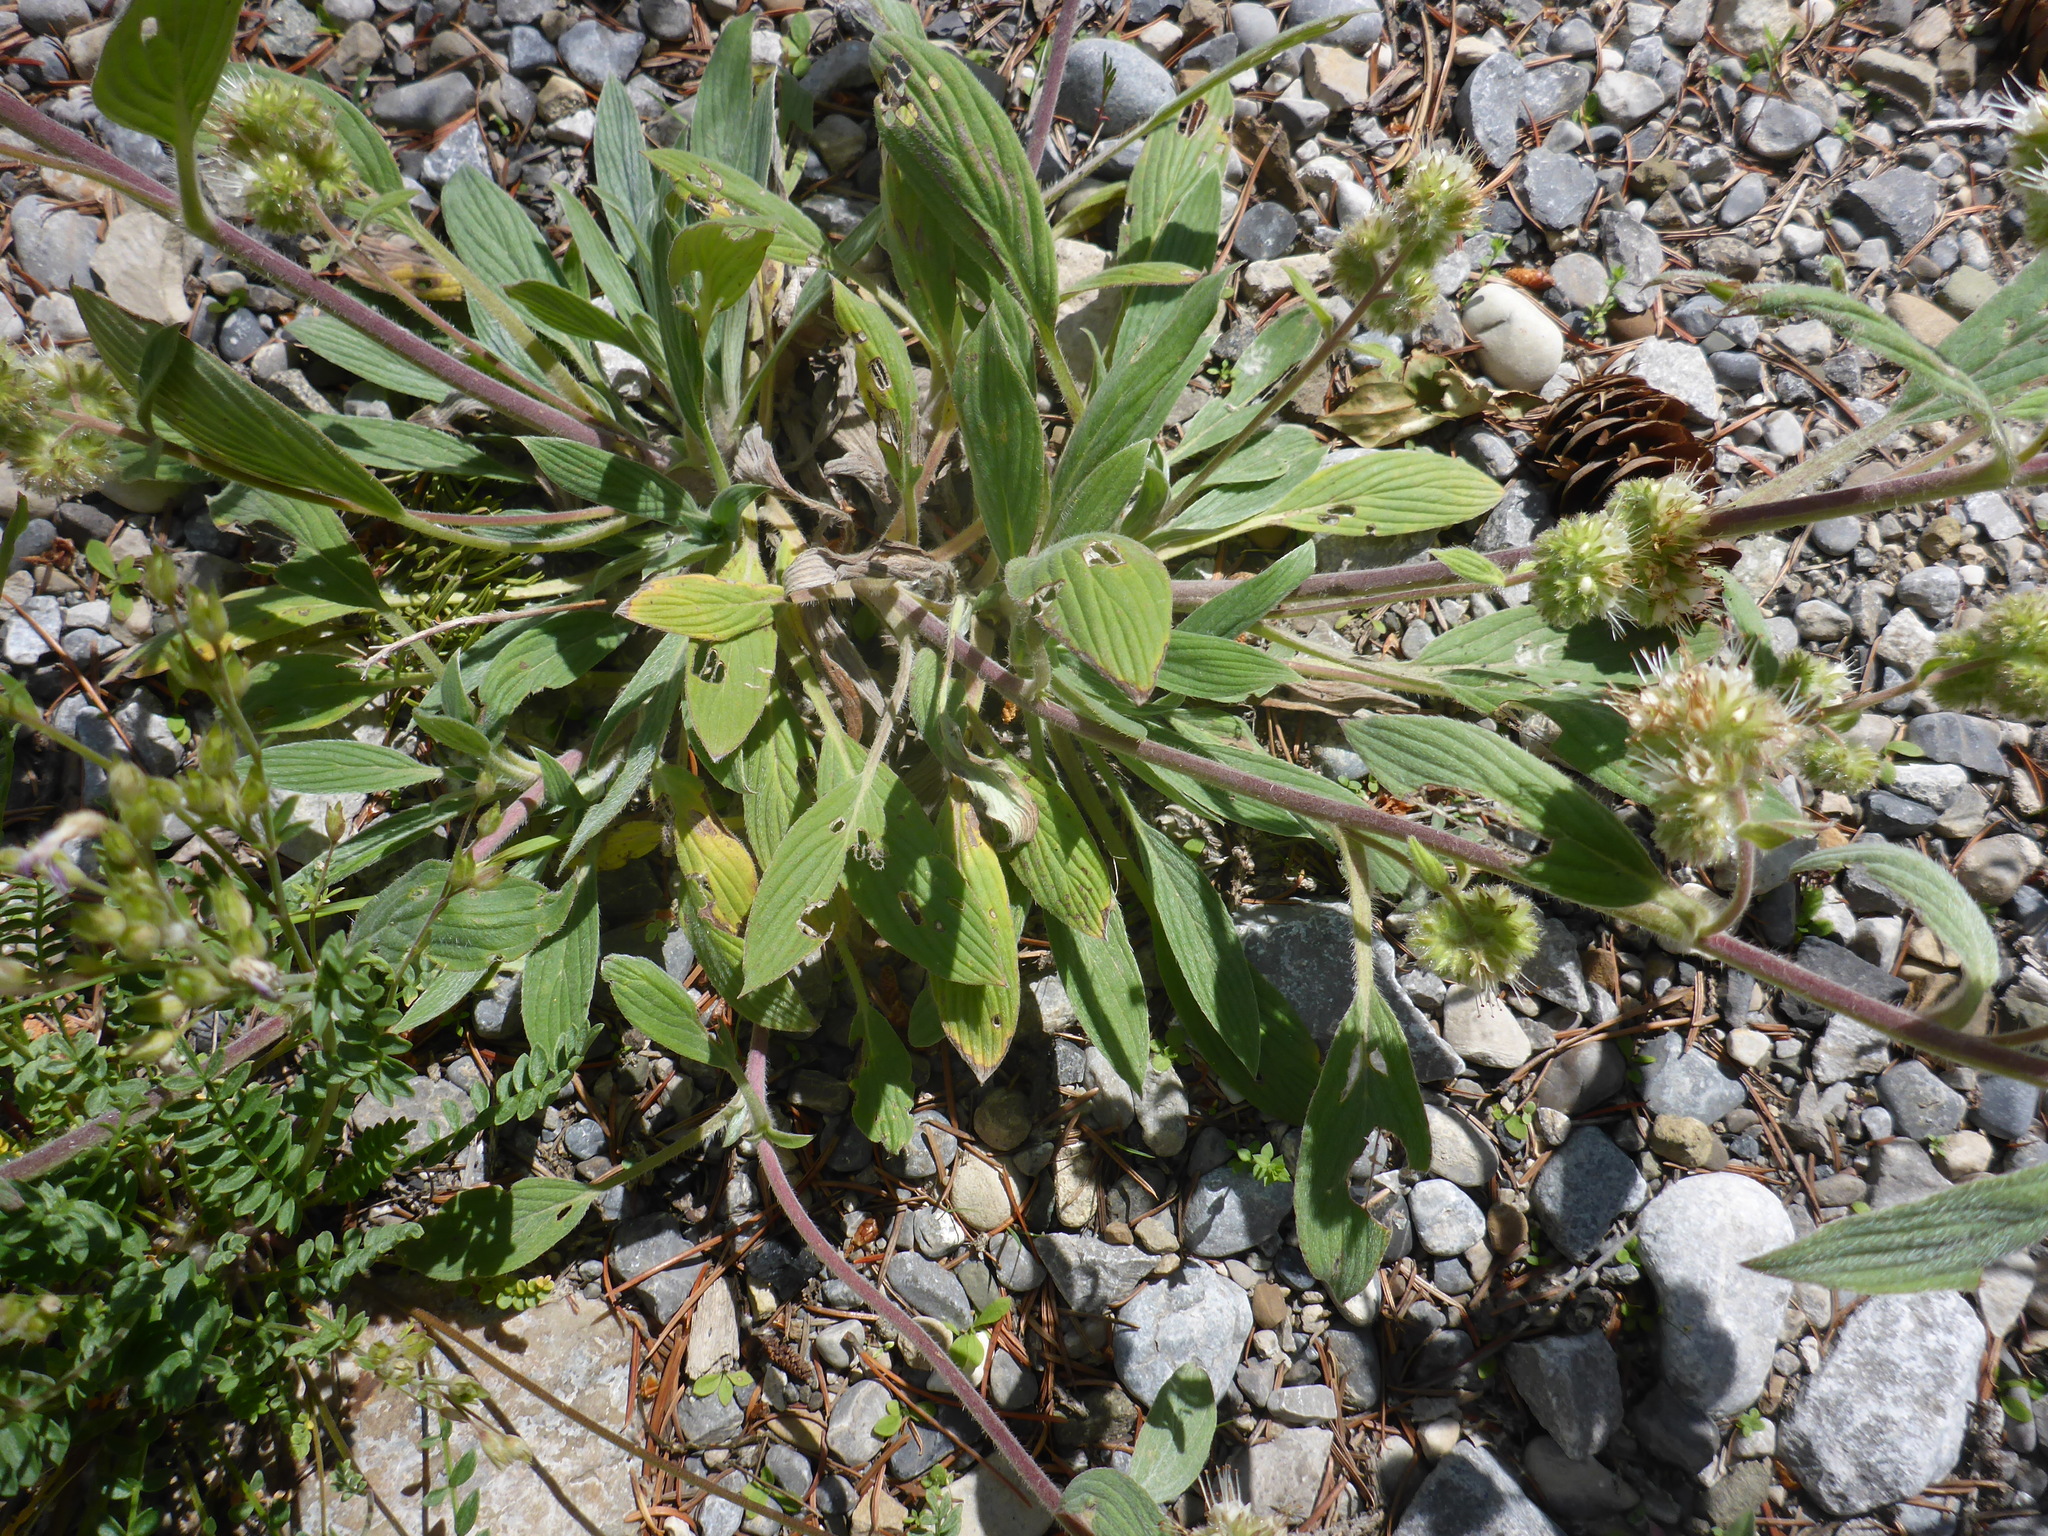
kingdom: Plantae
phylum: Tracheophyta
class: Magnoliopsida
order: Boraginales
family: Hydrophyllaceae
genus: Phacelia
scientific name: Phacelia hastata
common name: Silver-leaved phacelia
